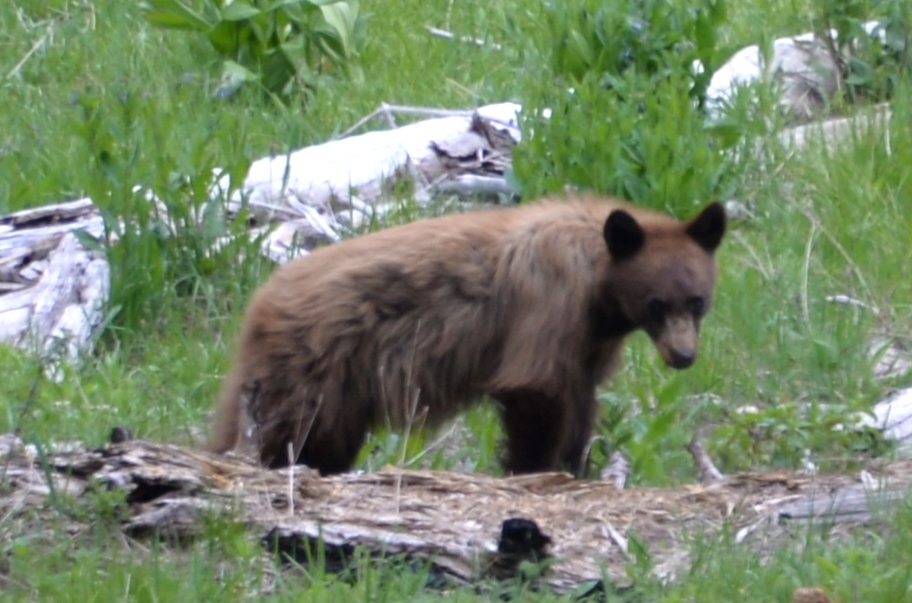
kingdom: Animalia
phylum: Chordata
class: Mammalia
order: Carnivora
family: Ursidae
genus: Ursus
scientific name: Ursus americanus
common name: American black bear
